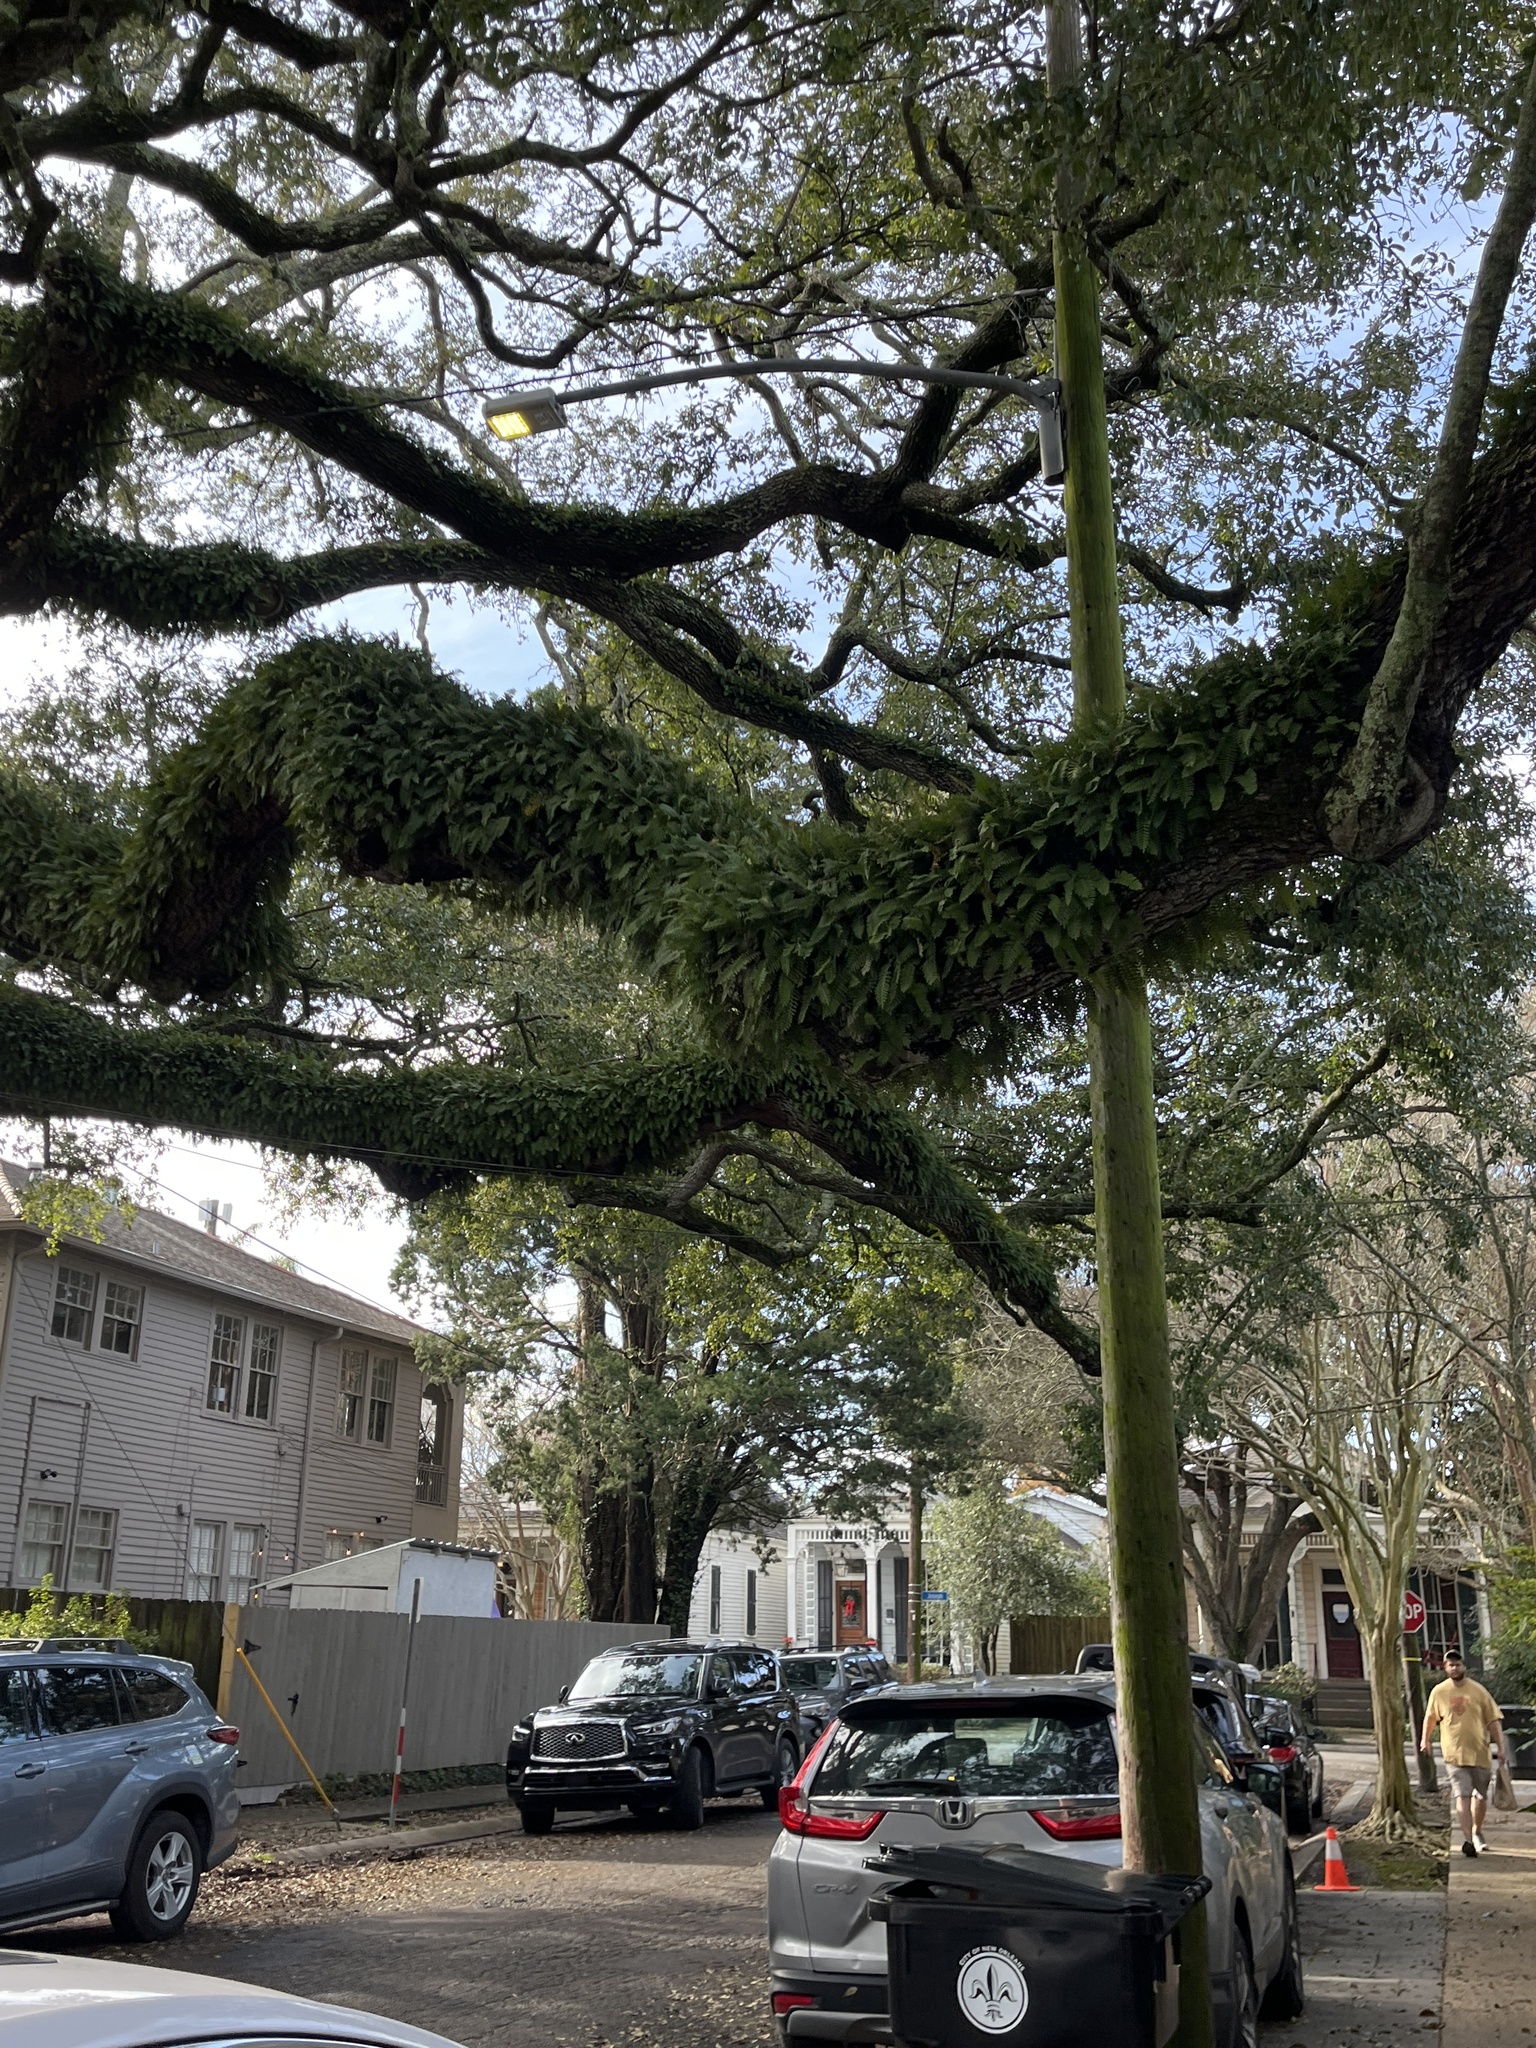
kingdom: Plantae
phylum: Tracheophyta
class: Polypodiopsida
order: Polypodiales
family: Polypodiaceae
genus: Pleopeltis
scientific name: Pleopeltis michauxiana
